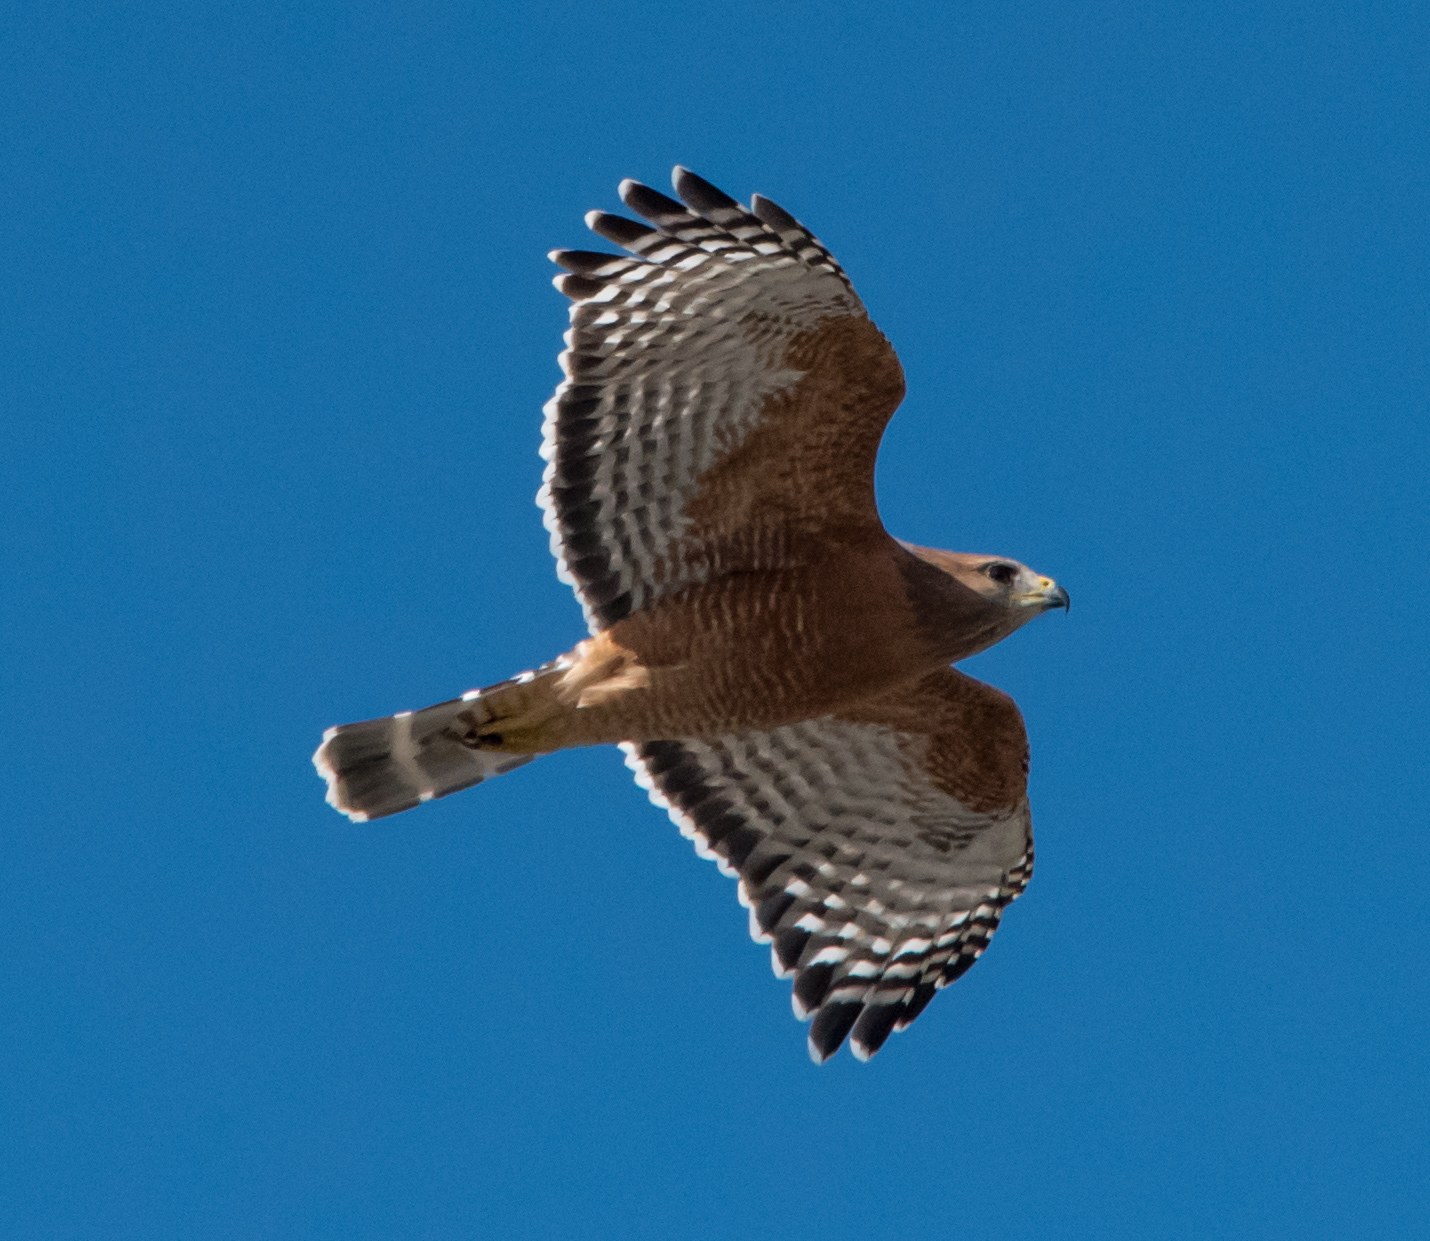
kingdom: Animalia
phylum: Chordata
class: Aves
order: Accipitriformes
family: Accipitridae
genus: Buteo
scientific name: Buteo lineatus
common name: Red-shouldered hawk
